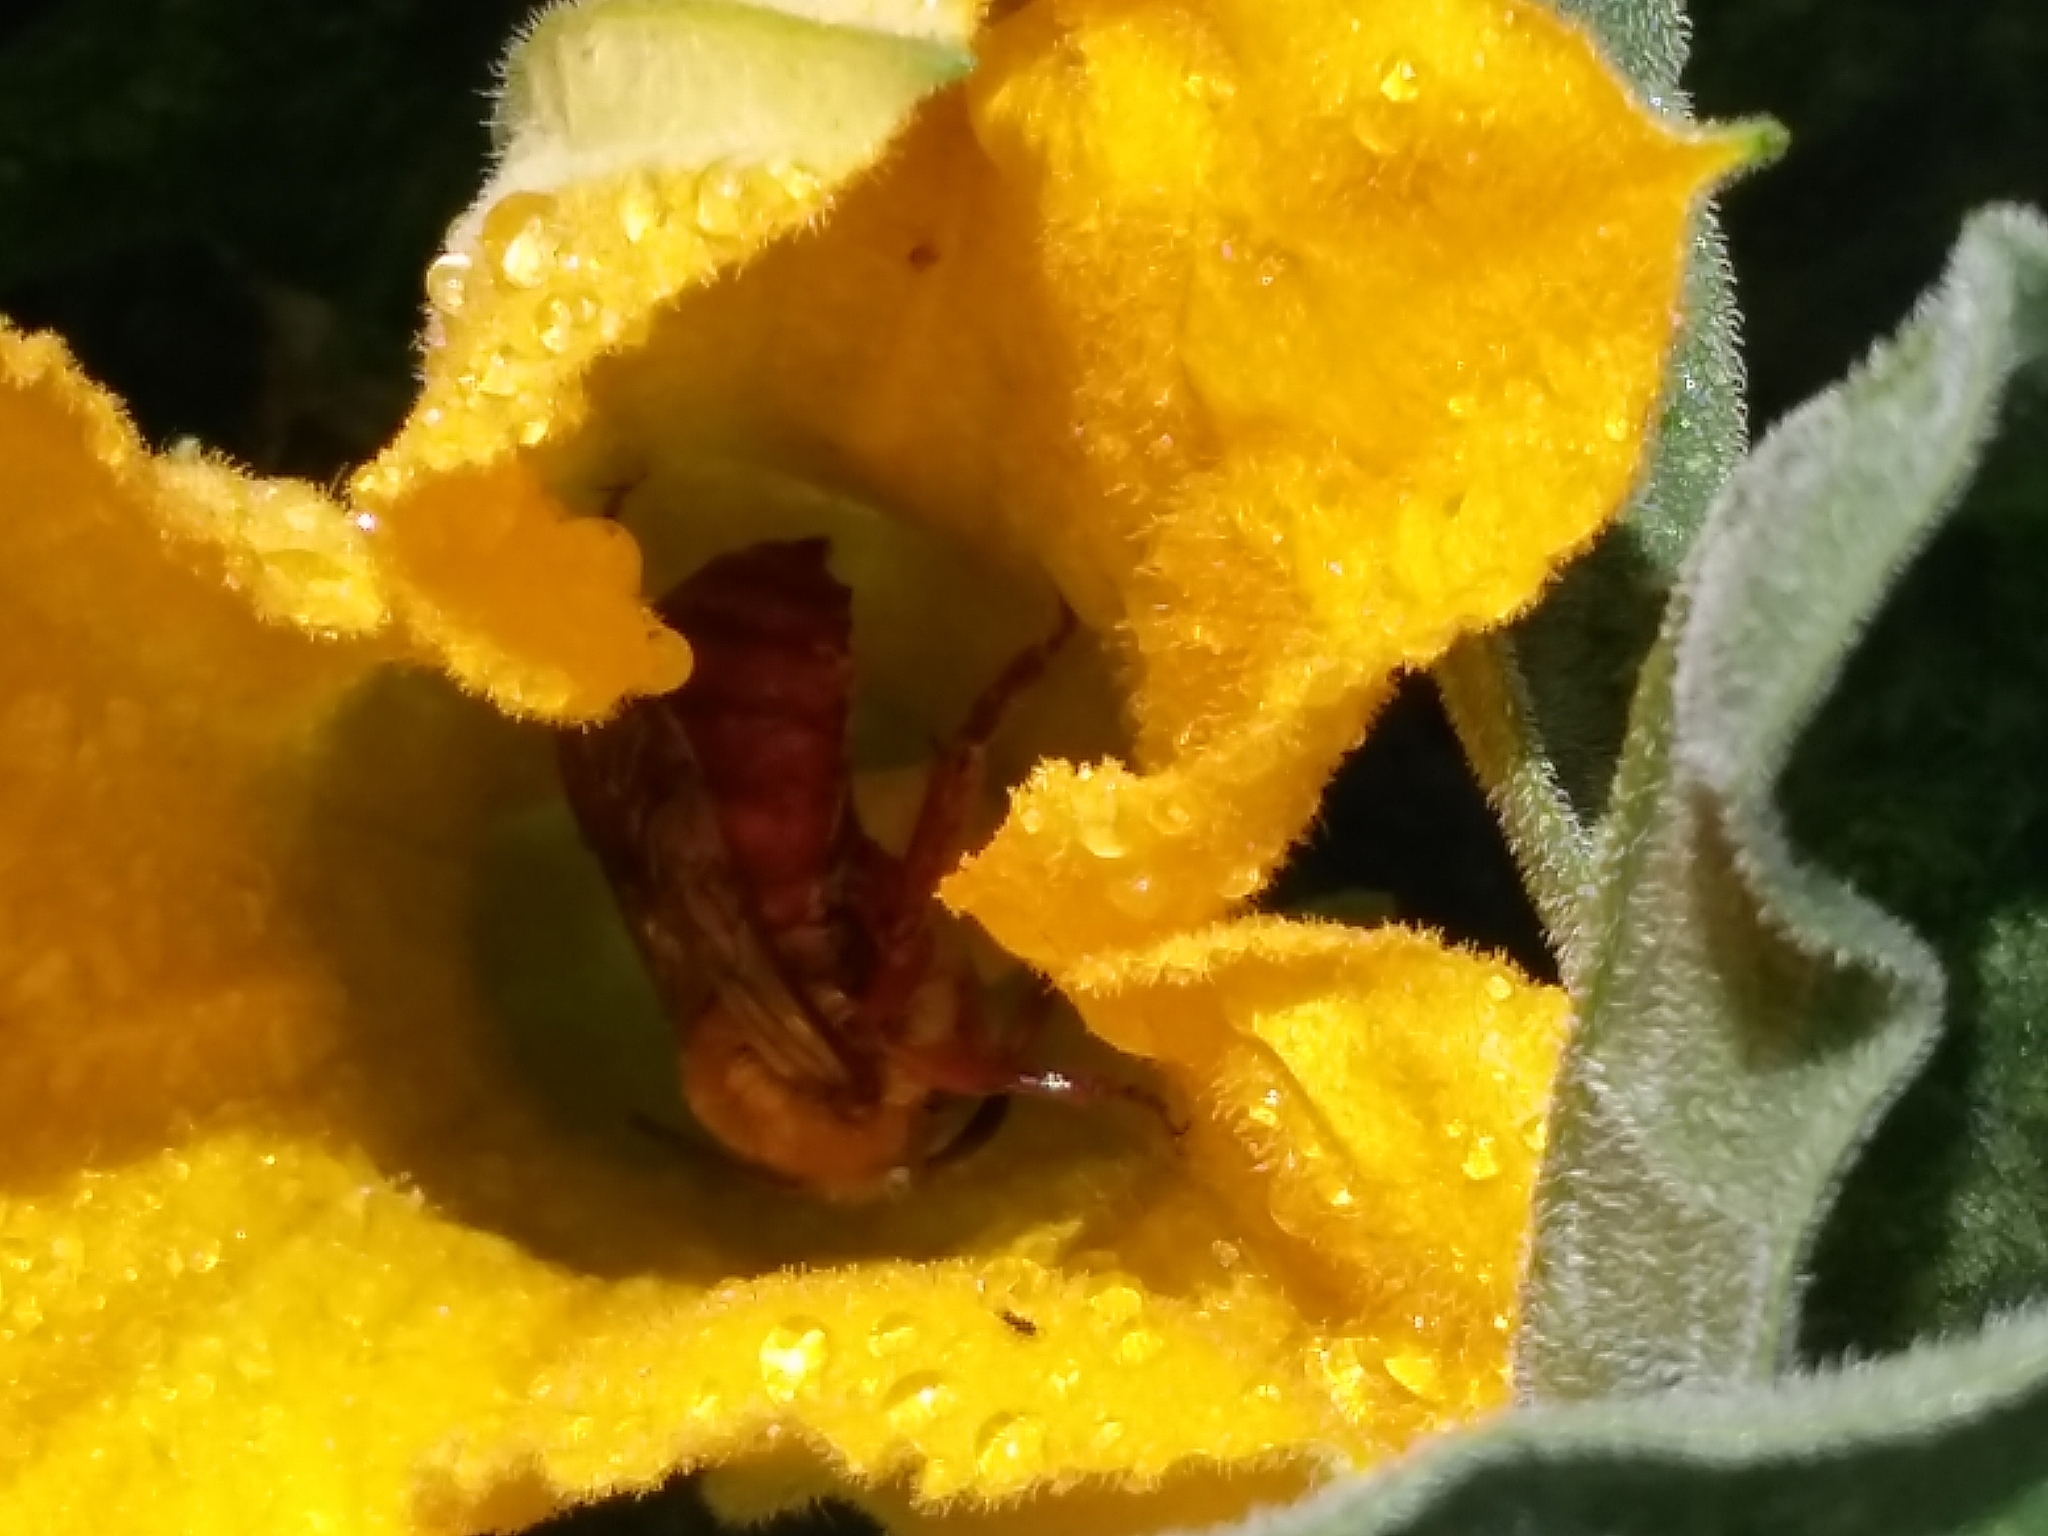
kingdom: Animalia
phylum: Arthropoda
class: Insecta
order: Hymenoptera
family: Apidae
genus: Apidae
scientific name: Apidae
